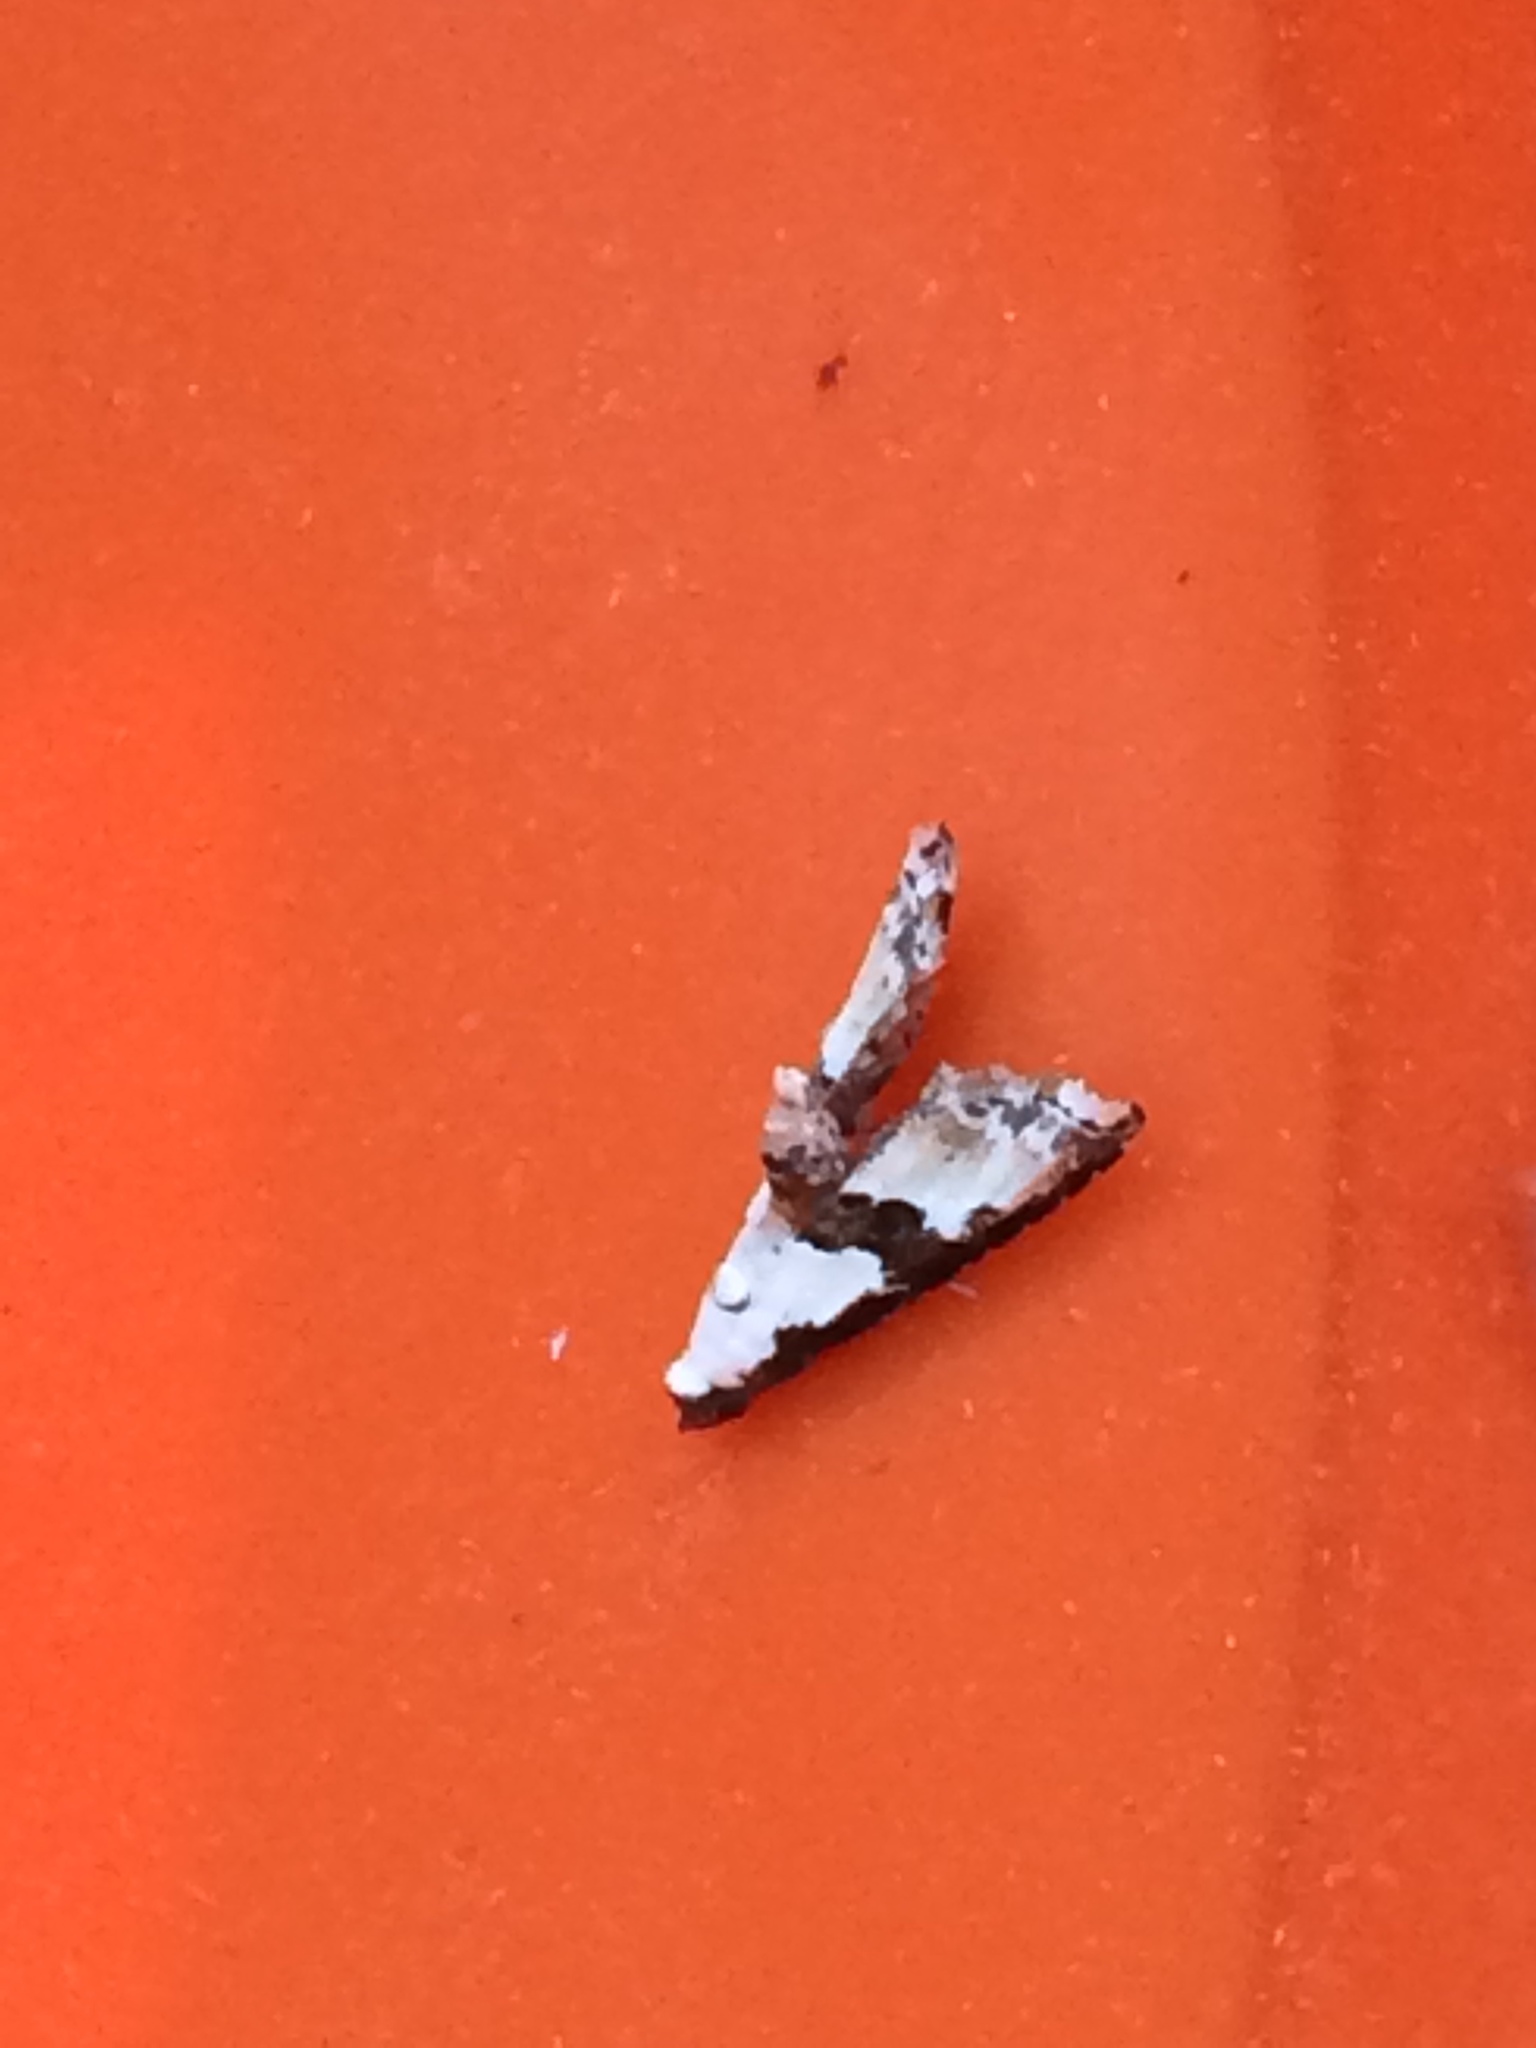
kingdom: Animalia
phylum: Arthropoda
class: Insecta
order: Lepidoptera
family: Noctuidae
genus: Nigetia
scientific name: Nigetia formosalis
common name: Thin-winged owlet
